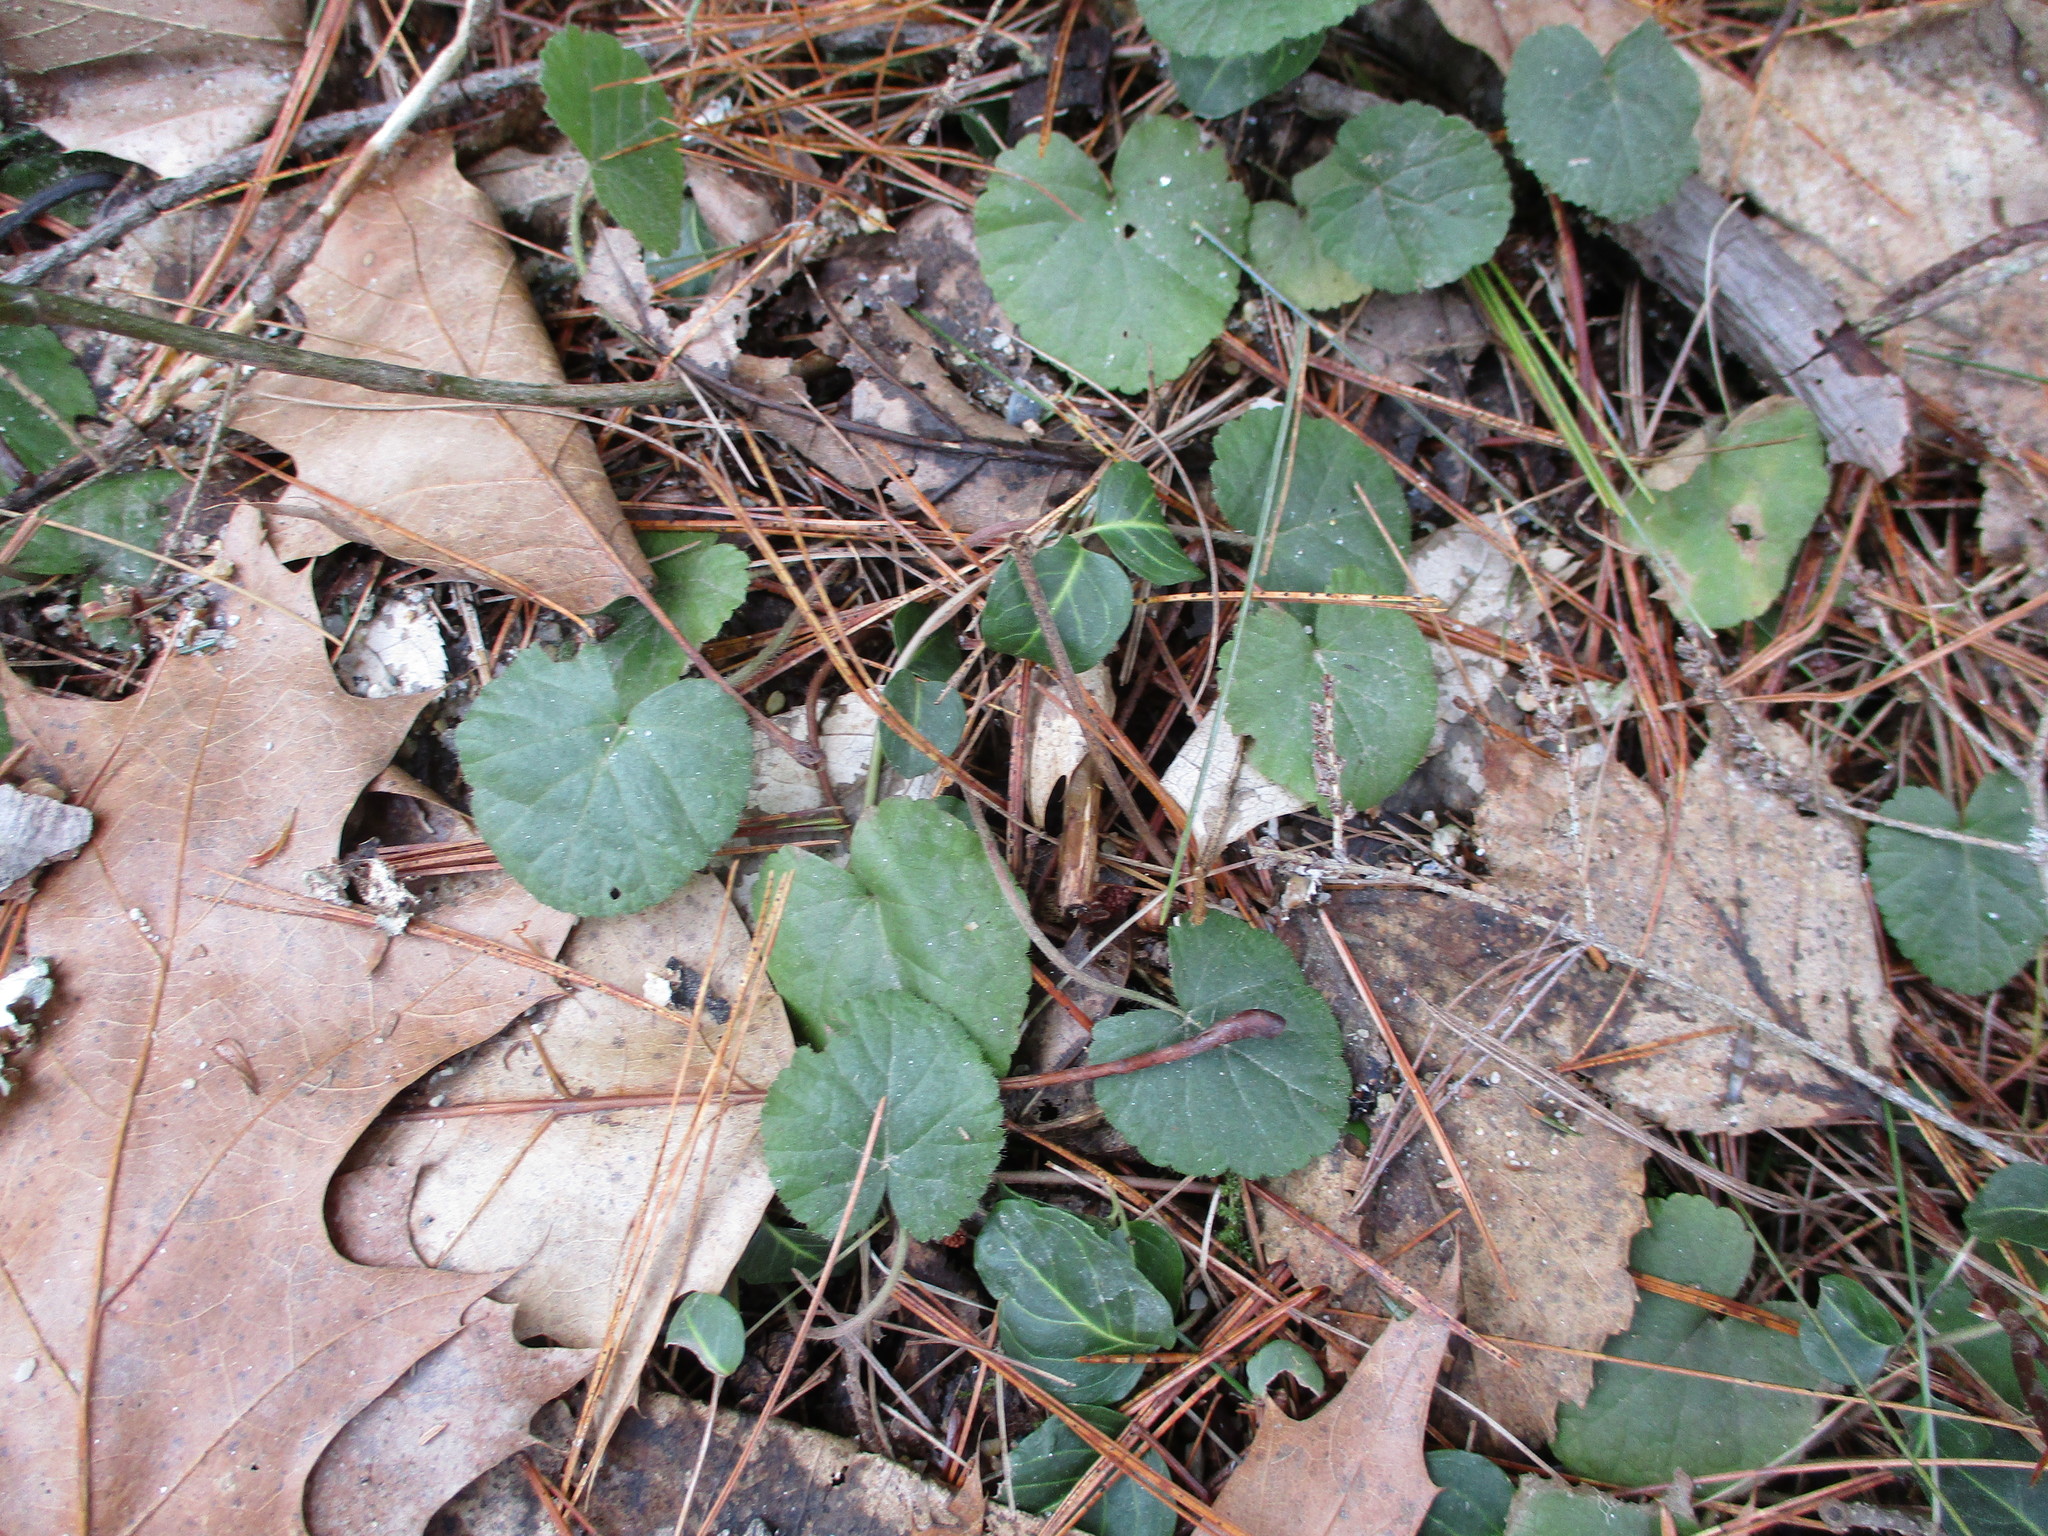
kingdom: Plantae
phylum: Tracheophyta
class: Magnoliopsida
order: Rosales
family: Rosaceae
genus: Dalibarda
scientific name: Dalibarda repens
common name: Dewdrop
